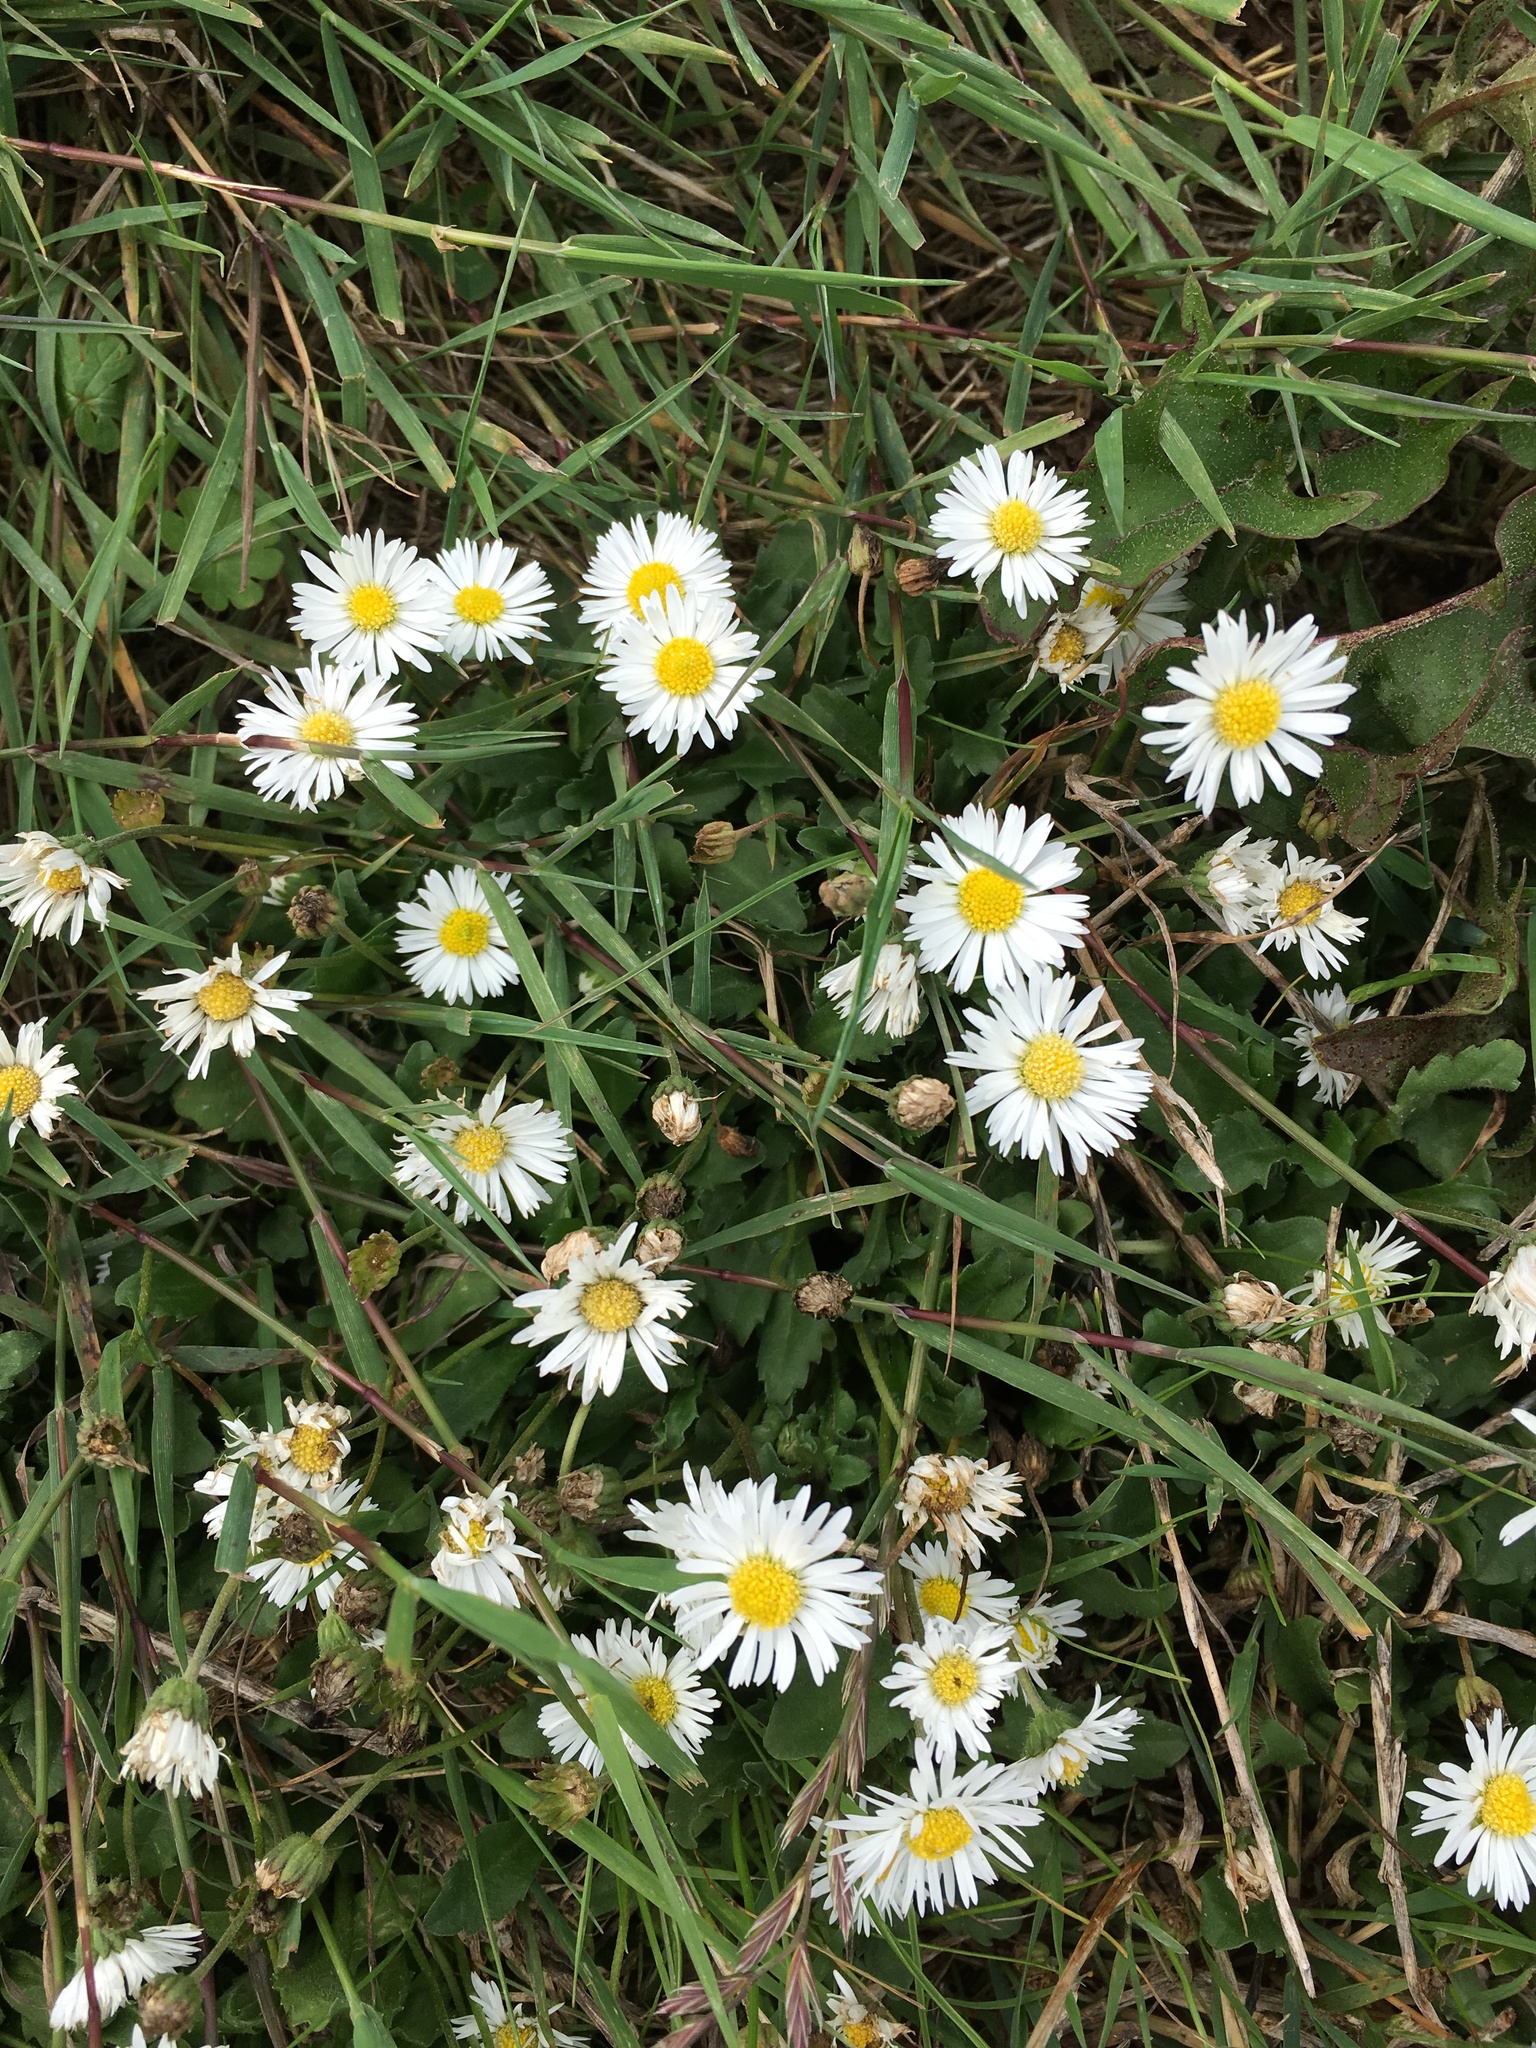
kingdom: Plantae
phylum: Tracheophyta
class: Magnoliopsida
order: Asterales
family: Asteraceae
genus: Bellis
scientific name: Bellis perennis
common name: Lawndaisy
